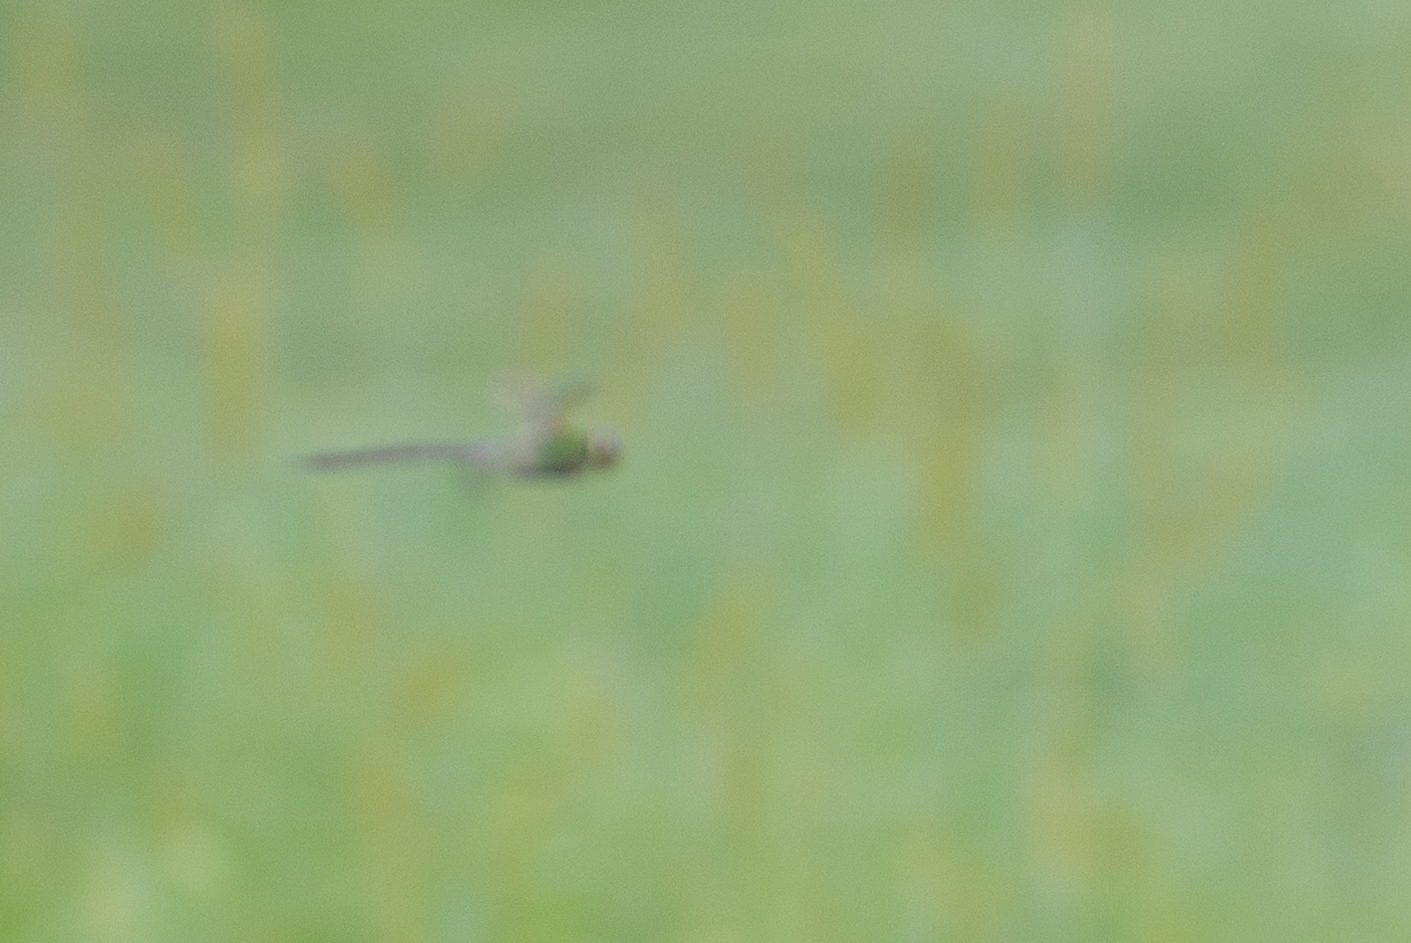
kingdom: Animalia
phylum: Arthropoda
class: Insecta
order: Odonata
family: Aeshnidae
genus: Anax
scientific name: Anax junius
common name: Common green darner
